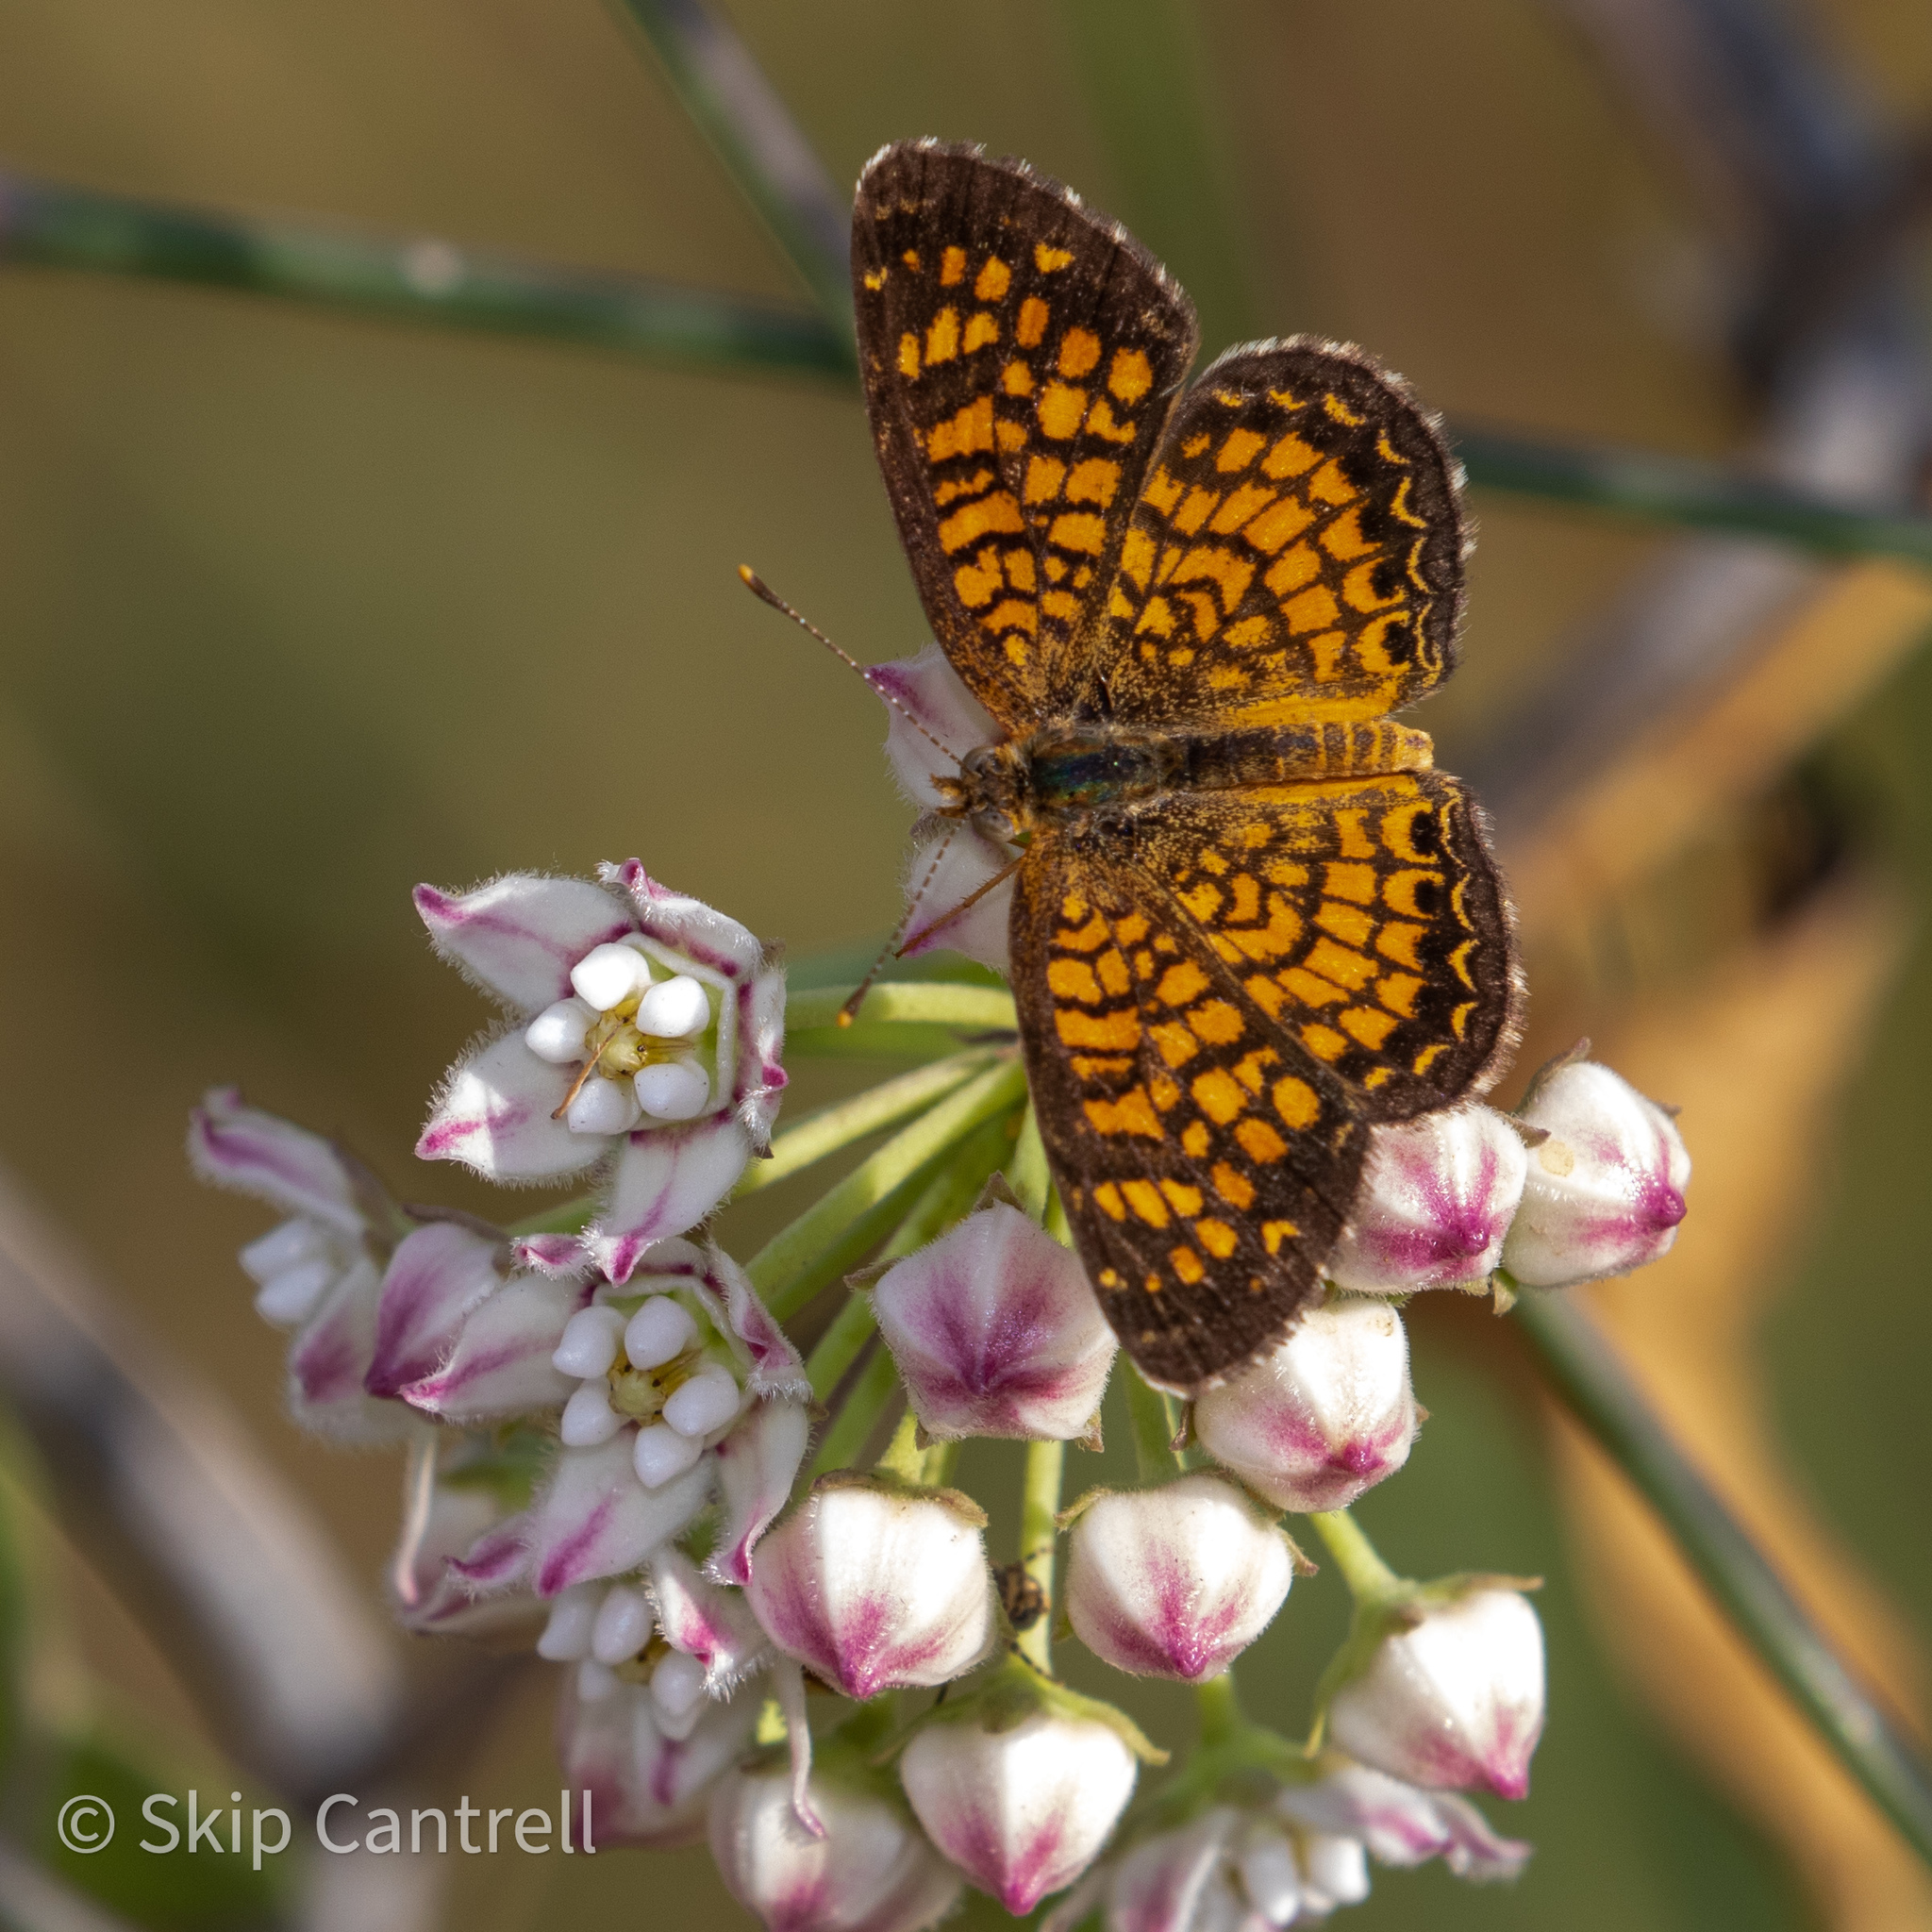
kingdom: Animalia
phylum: Arthropoda
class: Insecta
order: Lepidoptera
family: Nymphalidae
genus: Phyciodes
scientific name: Phyciodes vesta
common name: Vesta crescent
